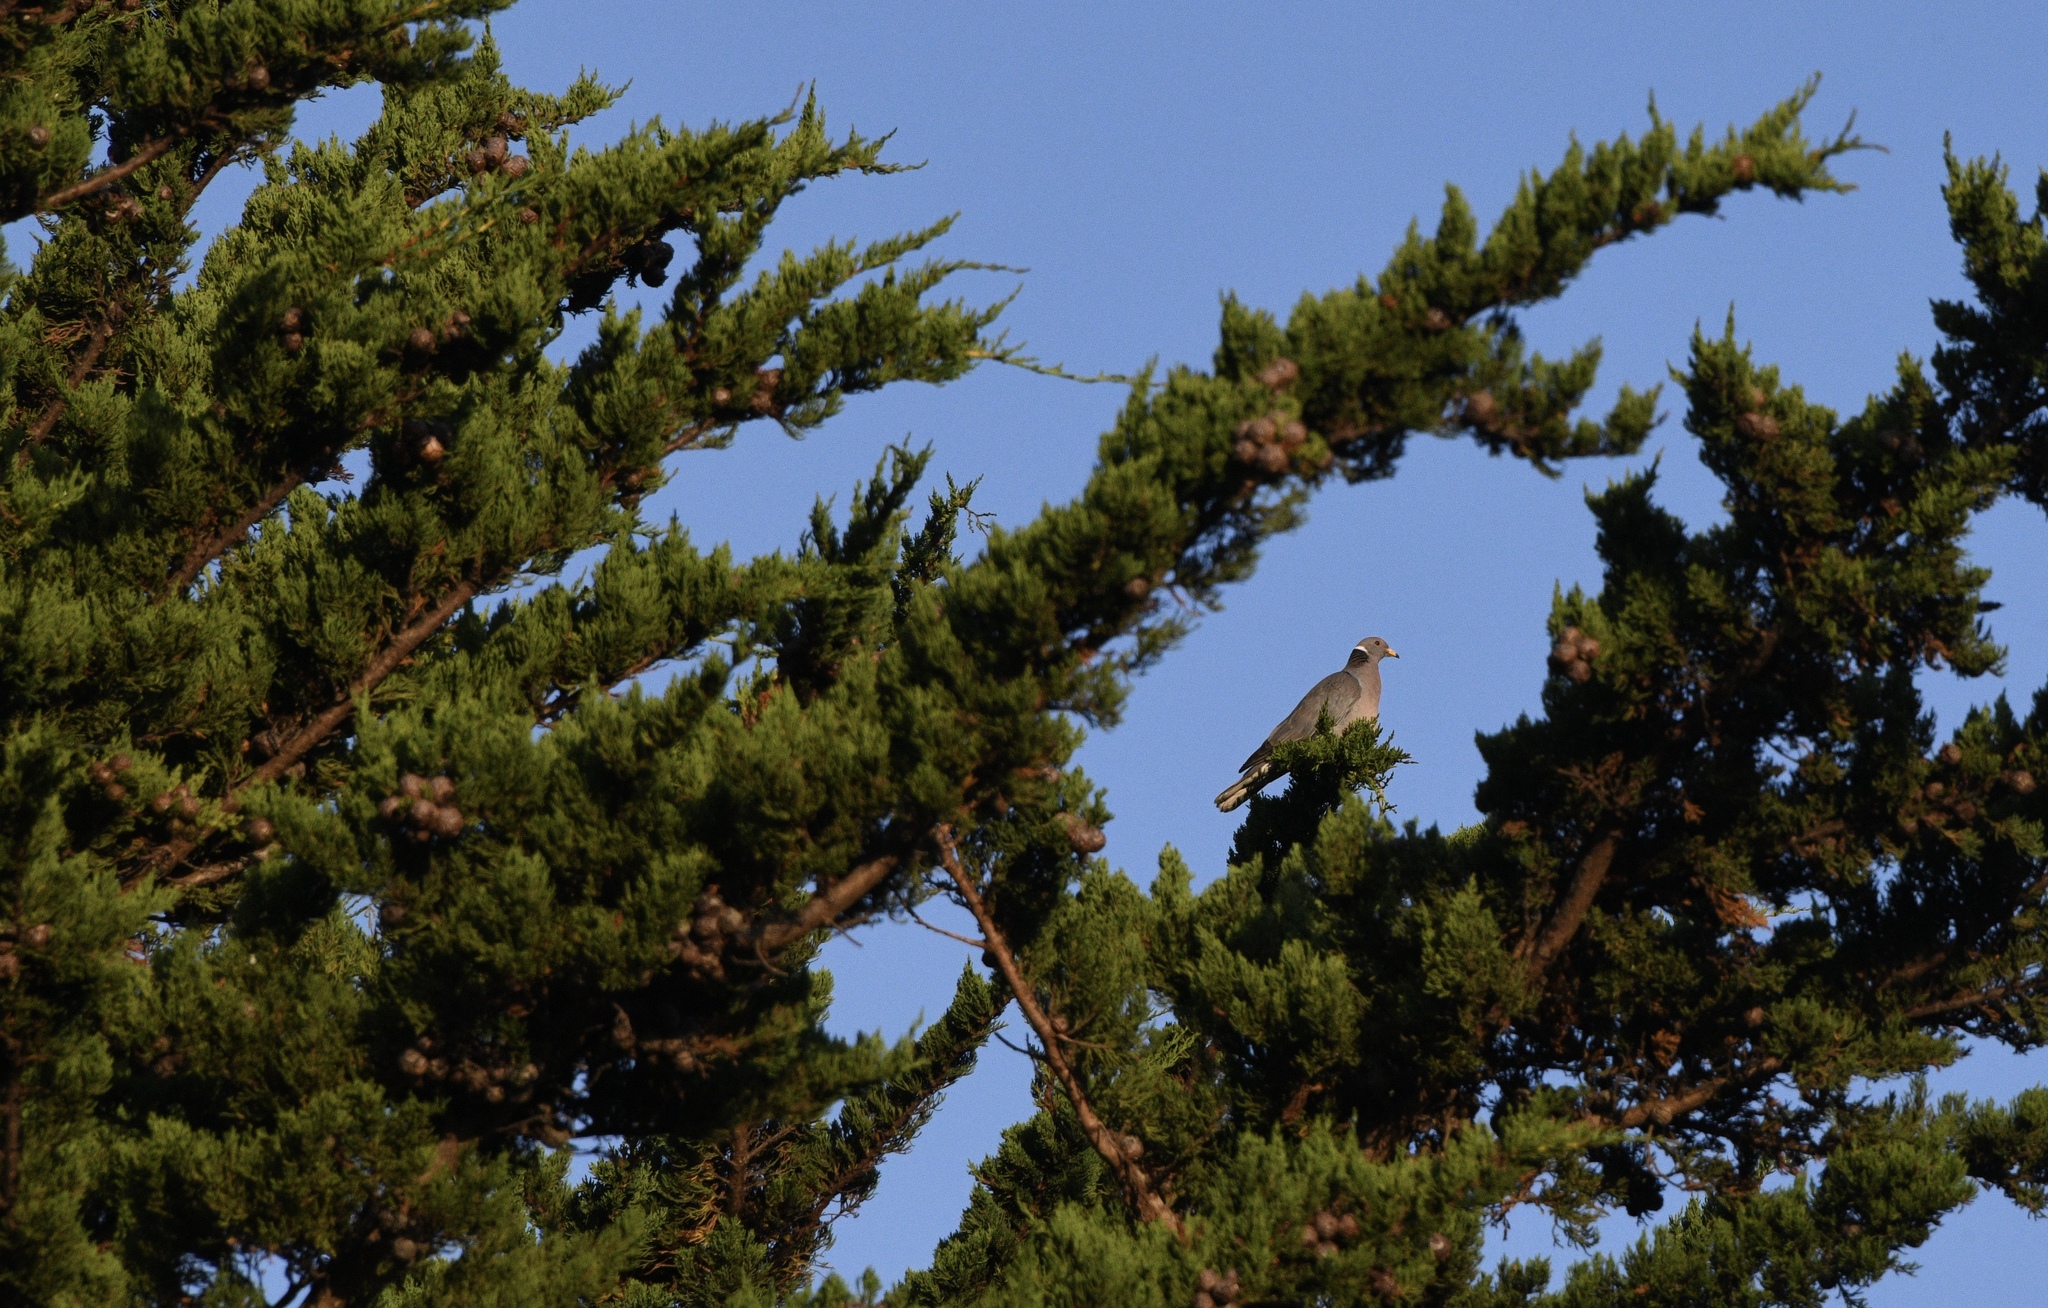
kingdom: Animalia
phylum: Chordata
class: Aves
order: Columbiformes
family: Columbidae
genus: Patagioenas
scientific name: Patagioenas fasciata
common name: Band-tailed pigeon
